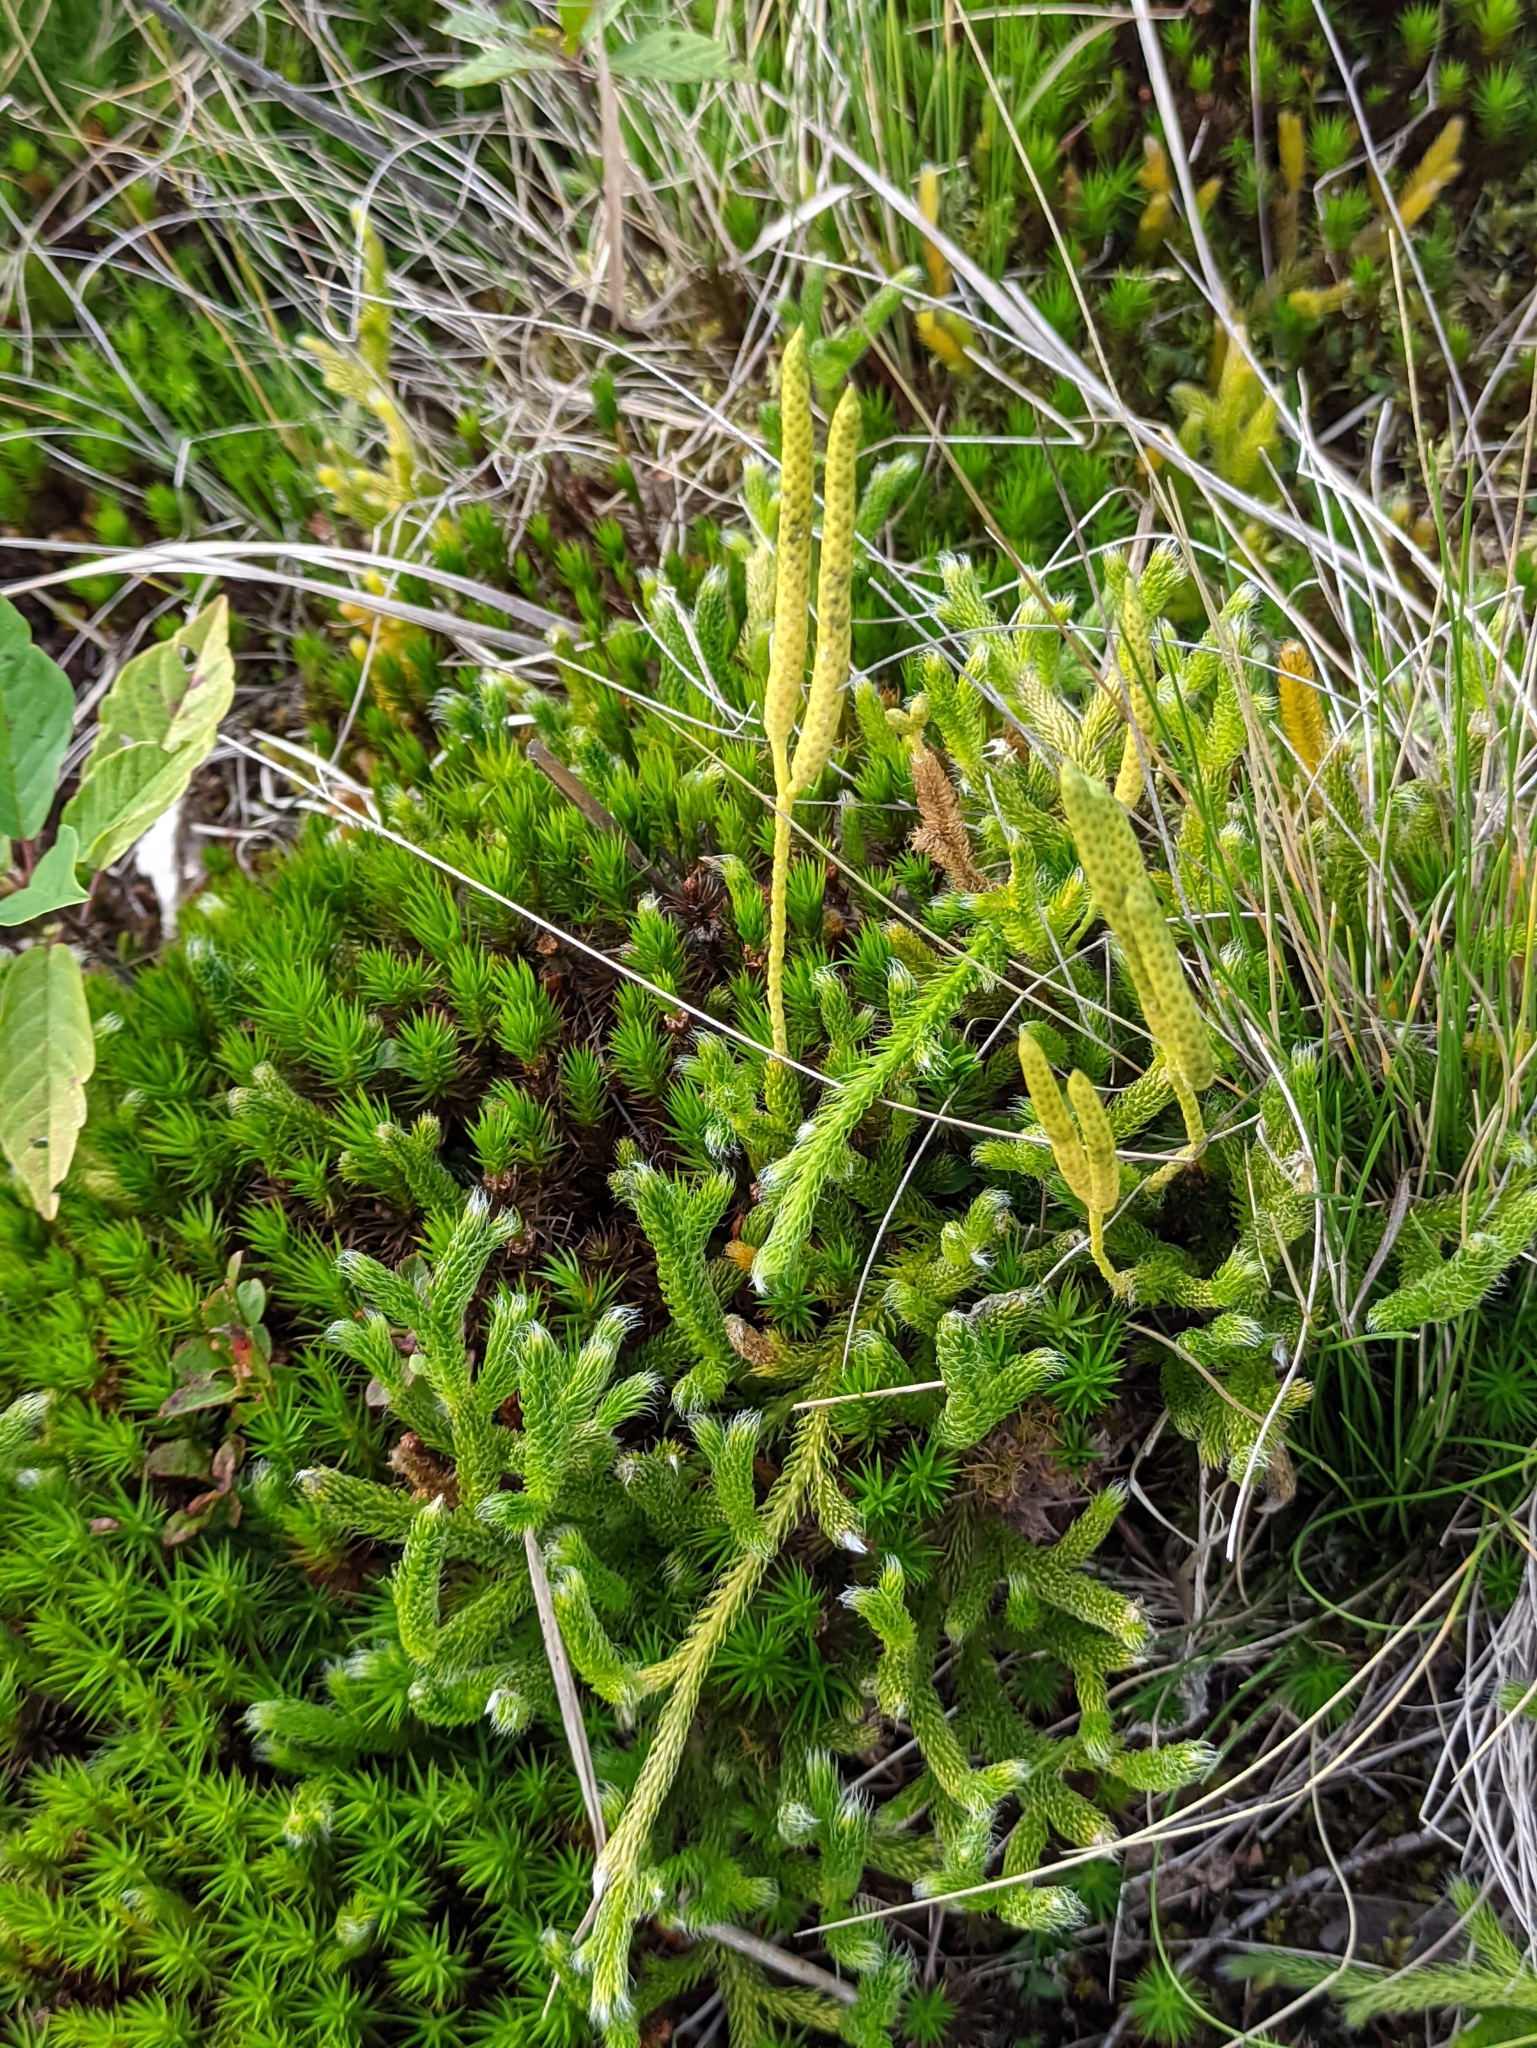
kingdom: Plantae
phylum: Tracheophyta
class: Lycopodiopsida
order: Lycopodiales
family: Lycopodiaceae
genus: Lycopodium
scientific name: Lycopodium clavatum
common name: Stag's-horn clubmoss
